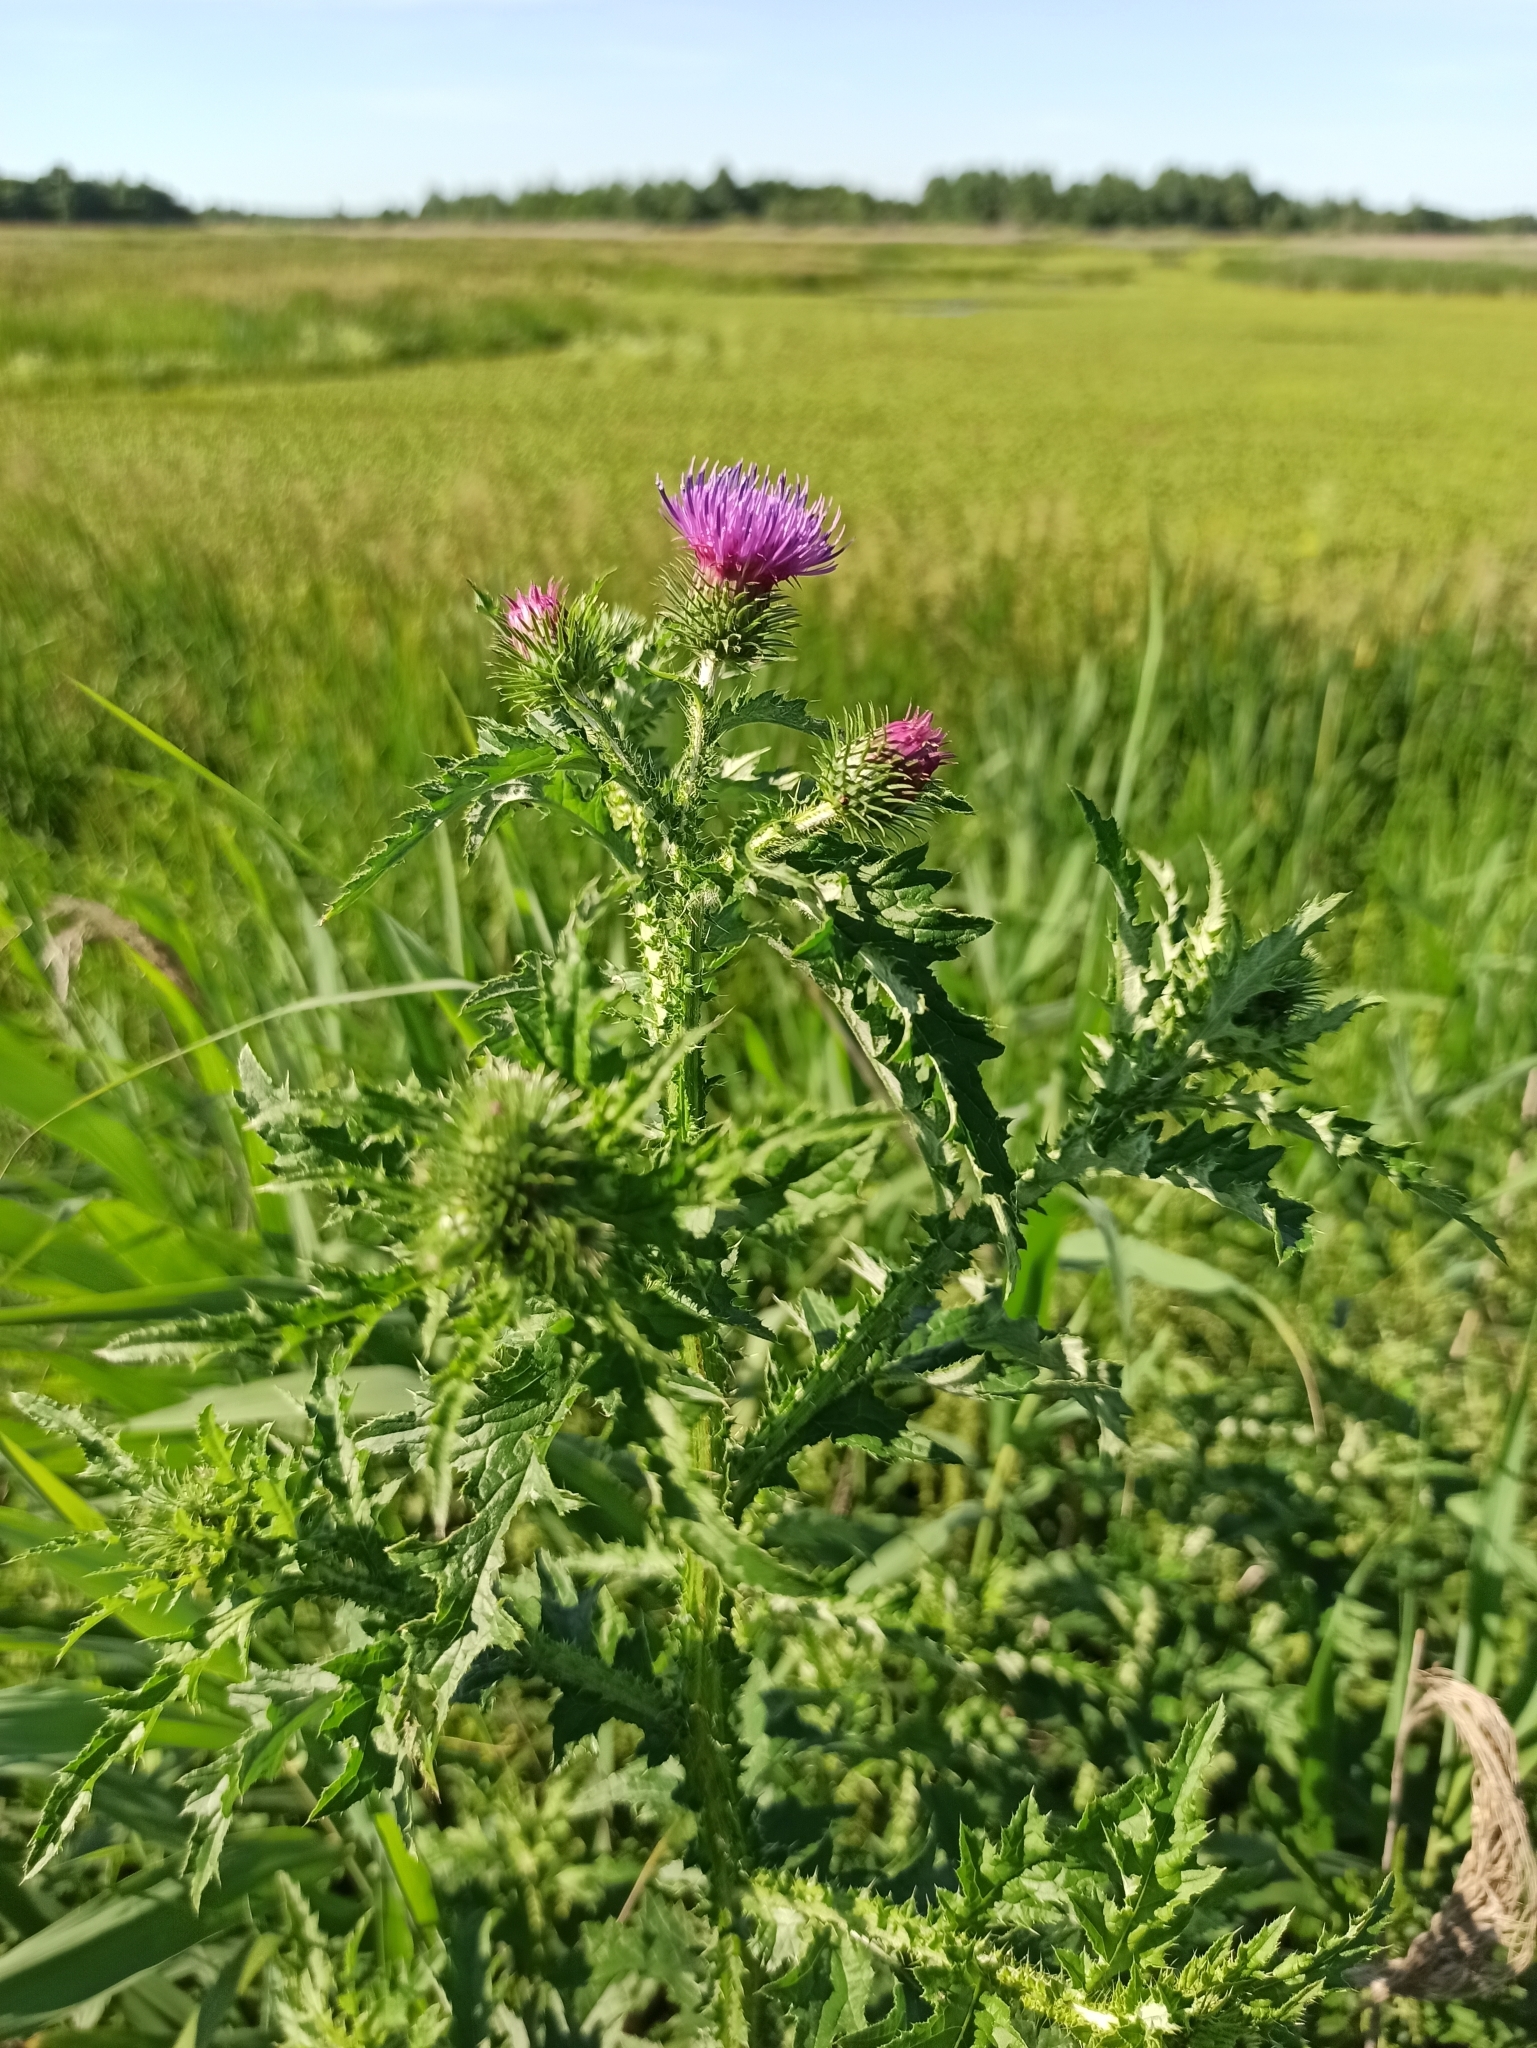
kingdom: Plantae
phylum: Tracheophyta
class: Magnoliopsida
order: Asterales
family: Asteraceae
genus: Carduus
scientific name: Carduus crispus
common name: Welted thistle
